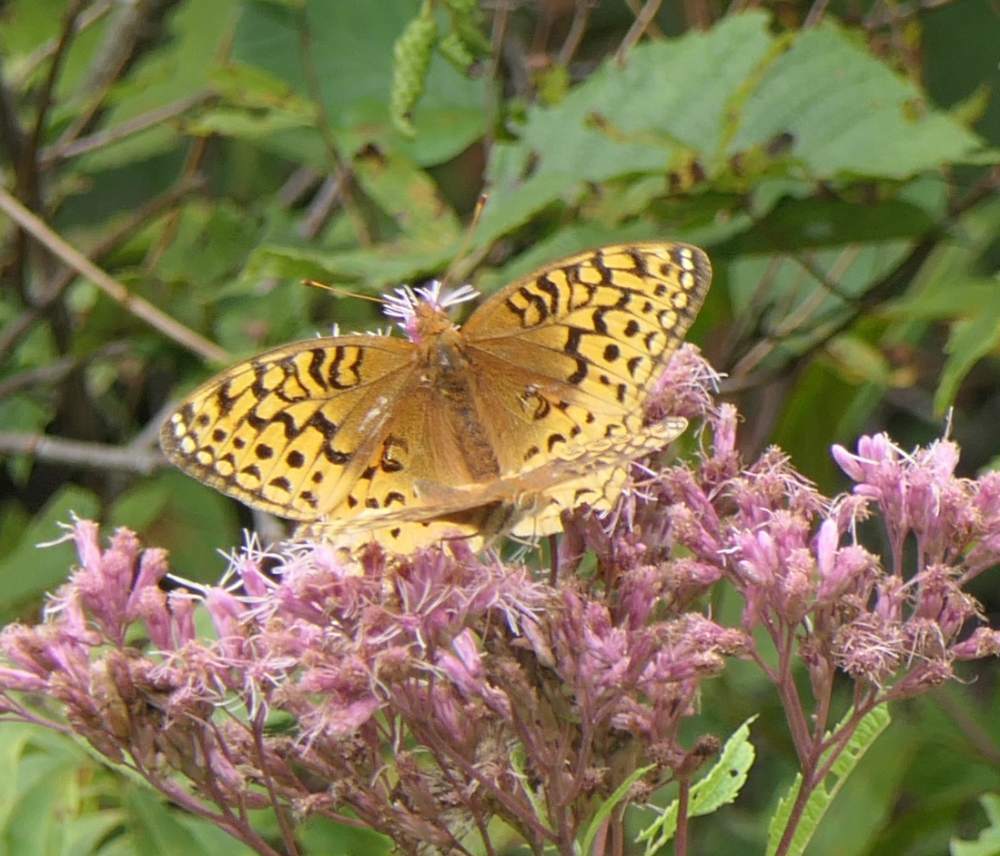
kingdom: Animalia
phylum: Arthropoda
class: Insecta
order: Lepidoptera
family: Nymphalidae
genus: Speyeria
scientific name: Speyeria cybele
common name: Great spangled fritillary
